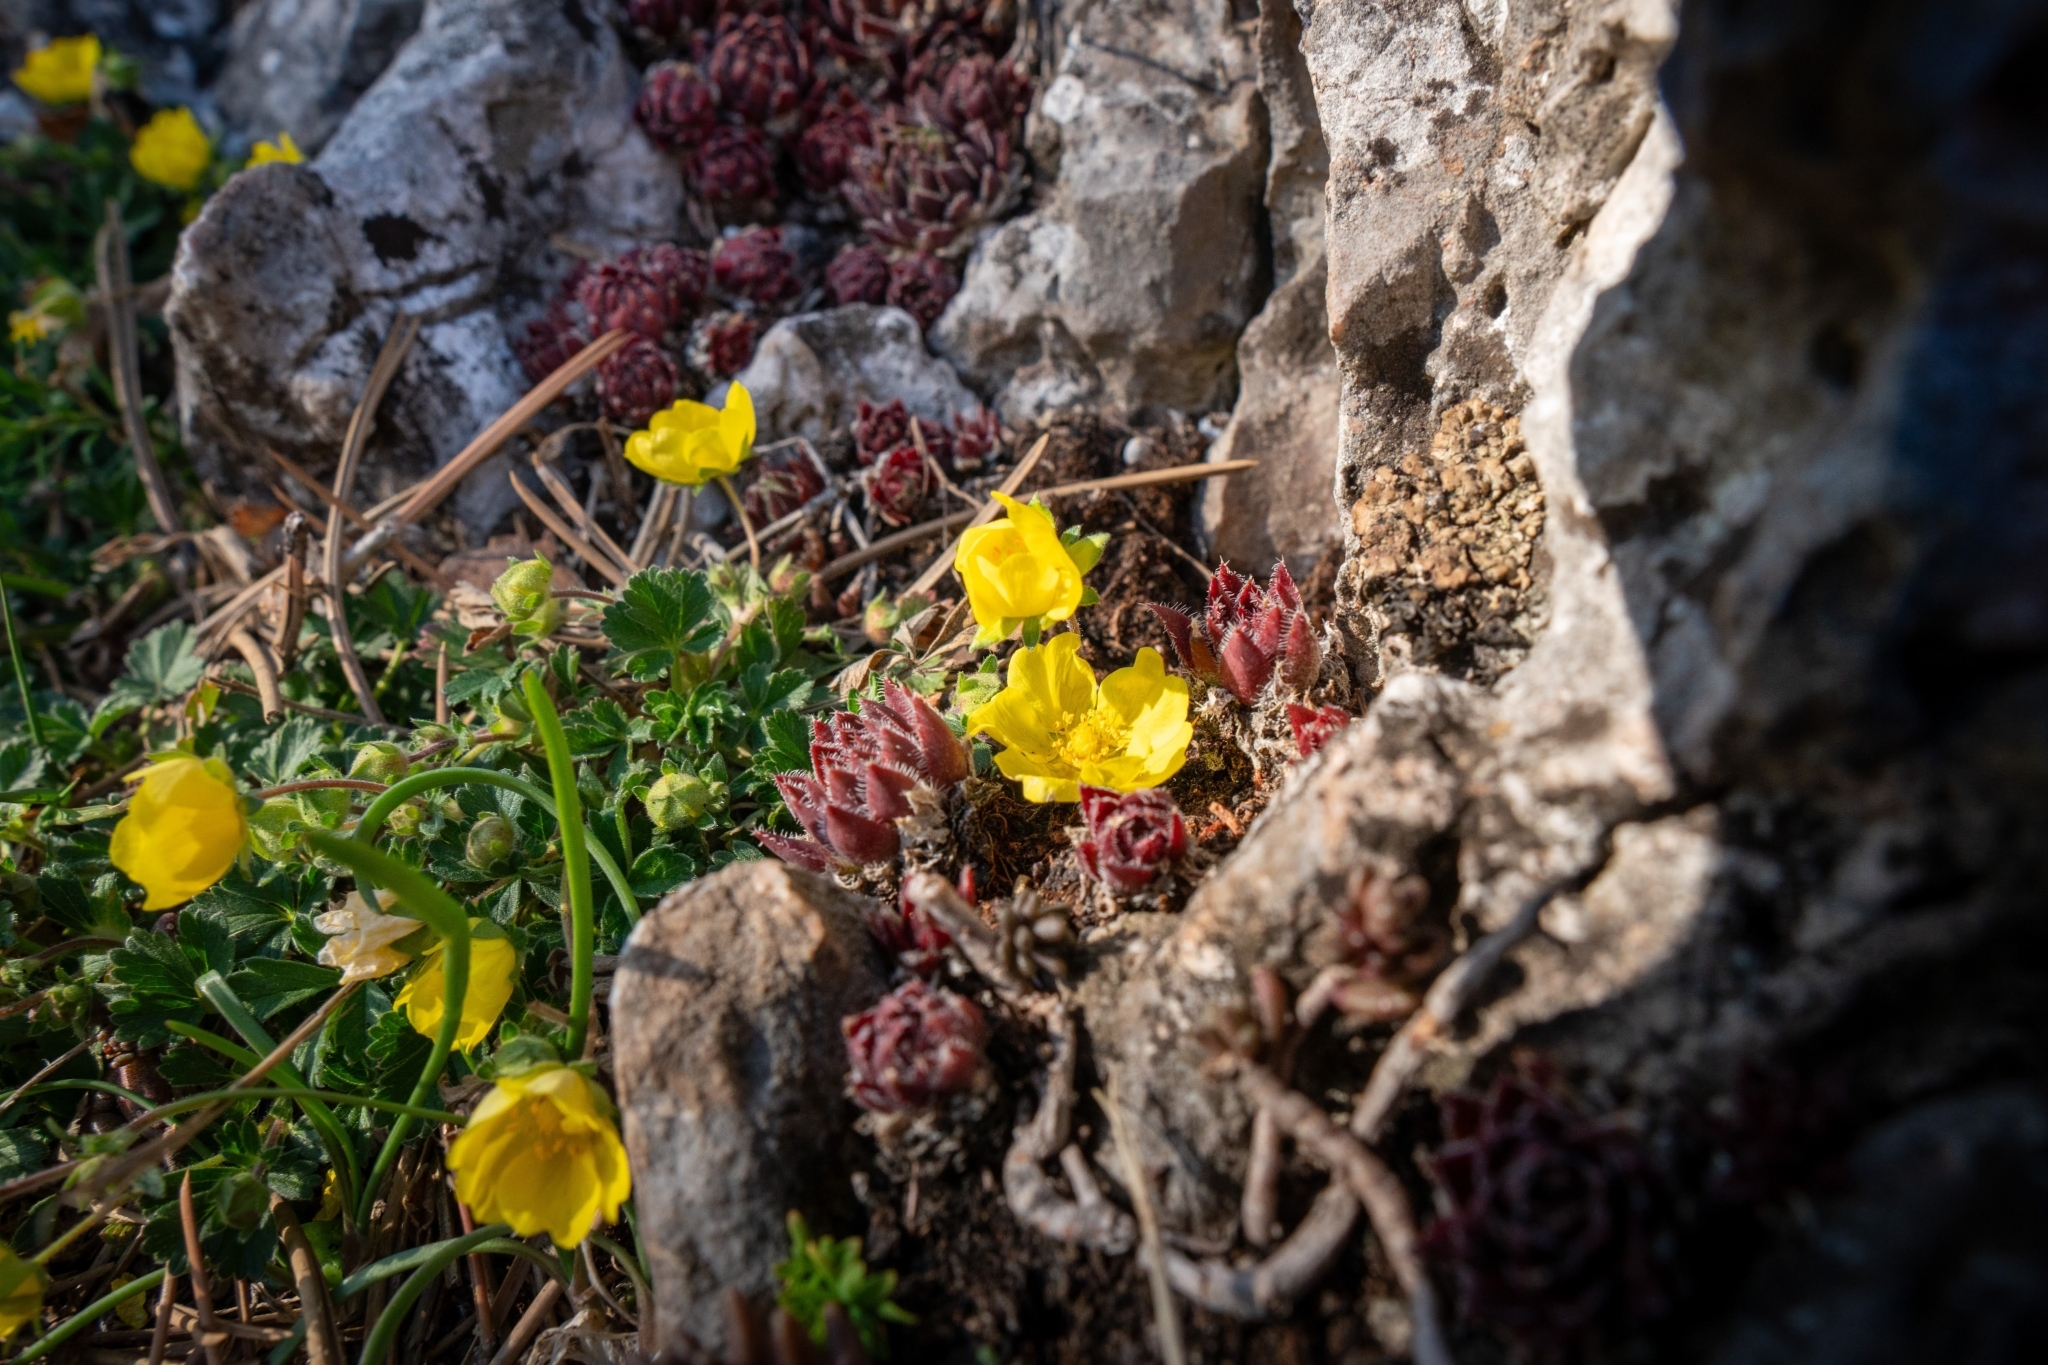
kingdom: Plantae
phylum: Tracheophyta
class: Magnoliopsida
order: Rosales
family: Rosaceae
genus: Potentilla
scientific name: Potentilla incana
